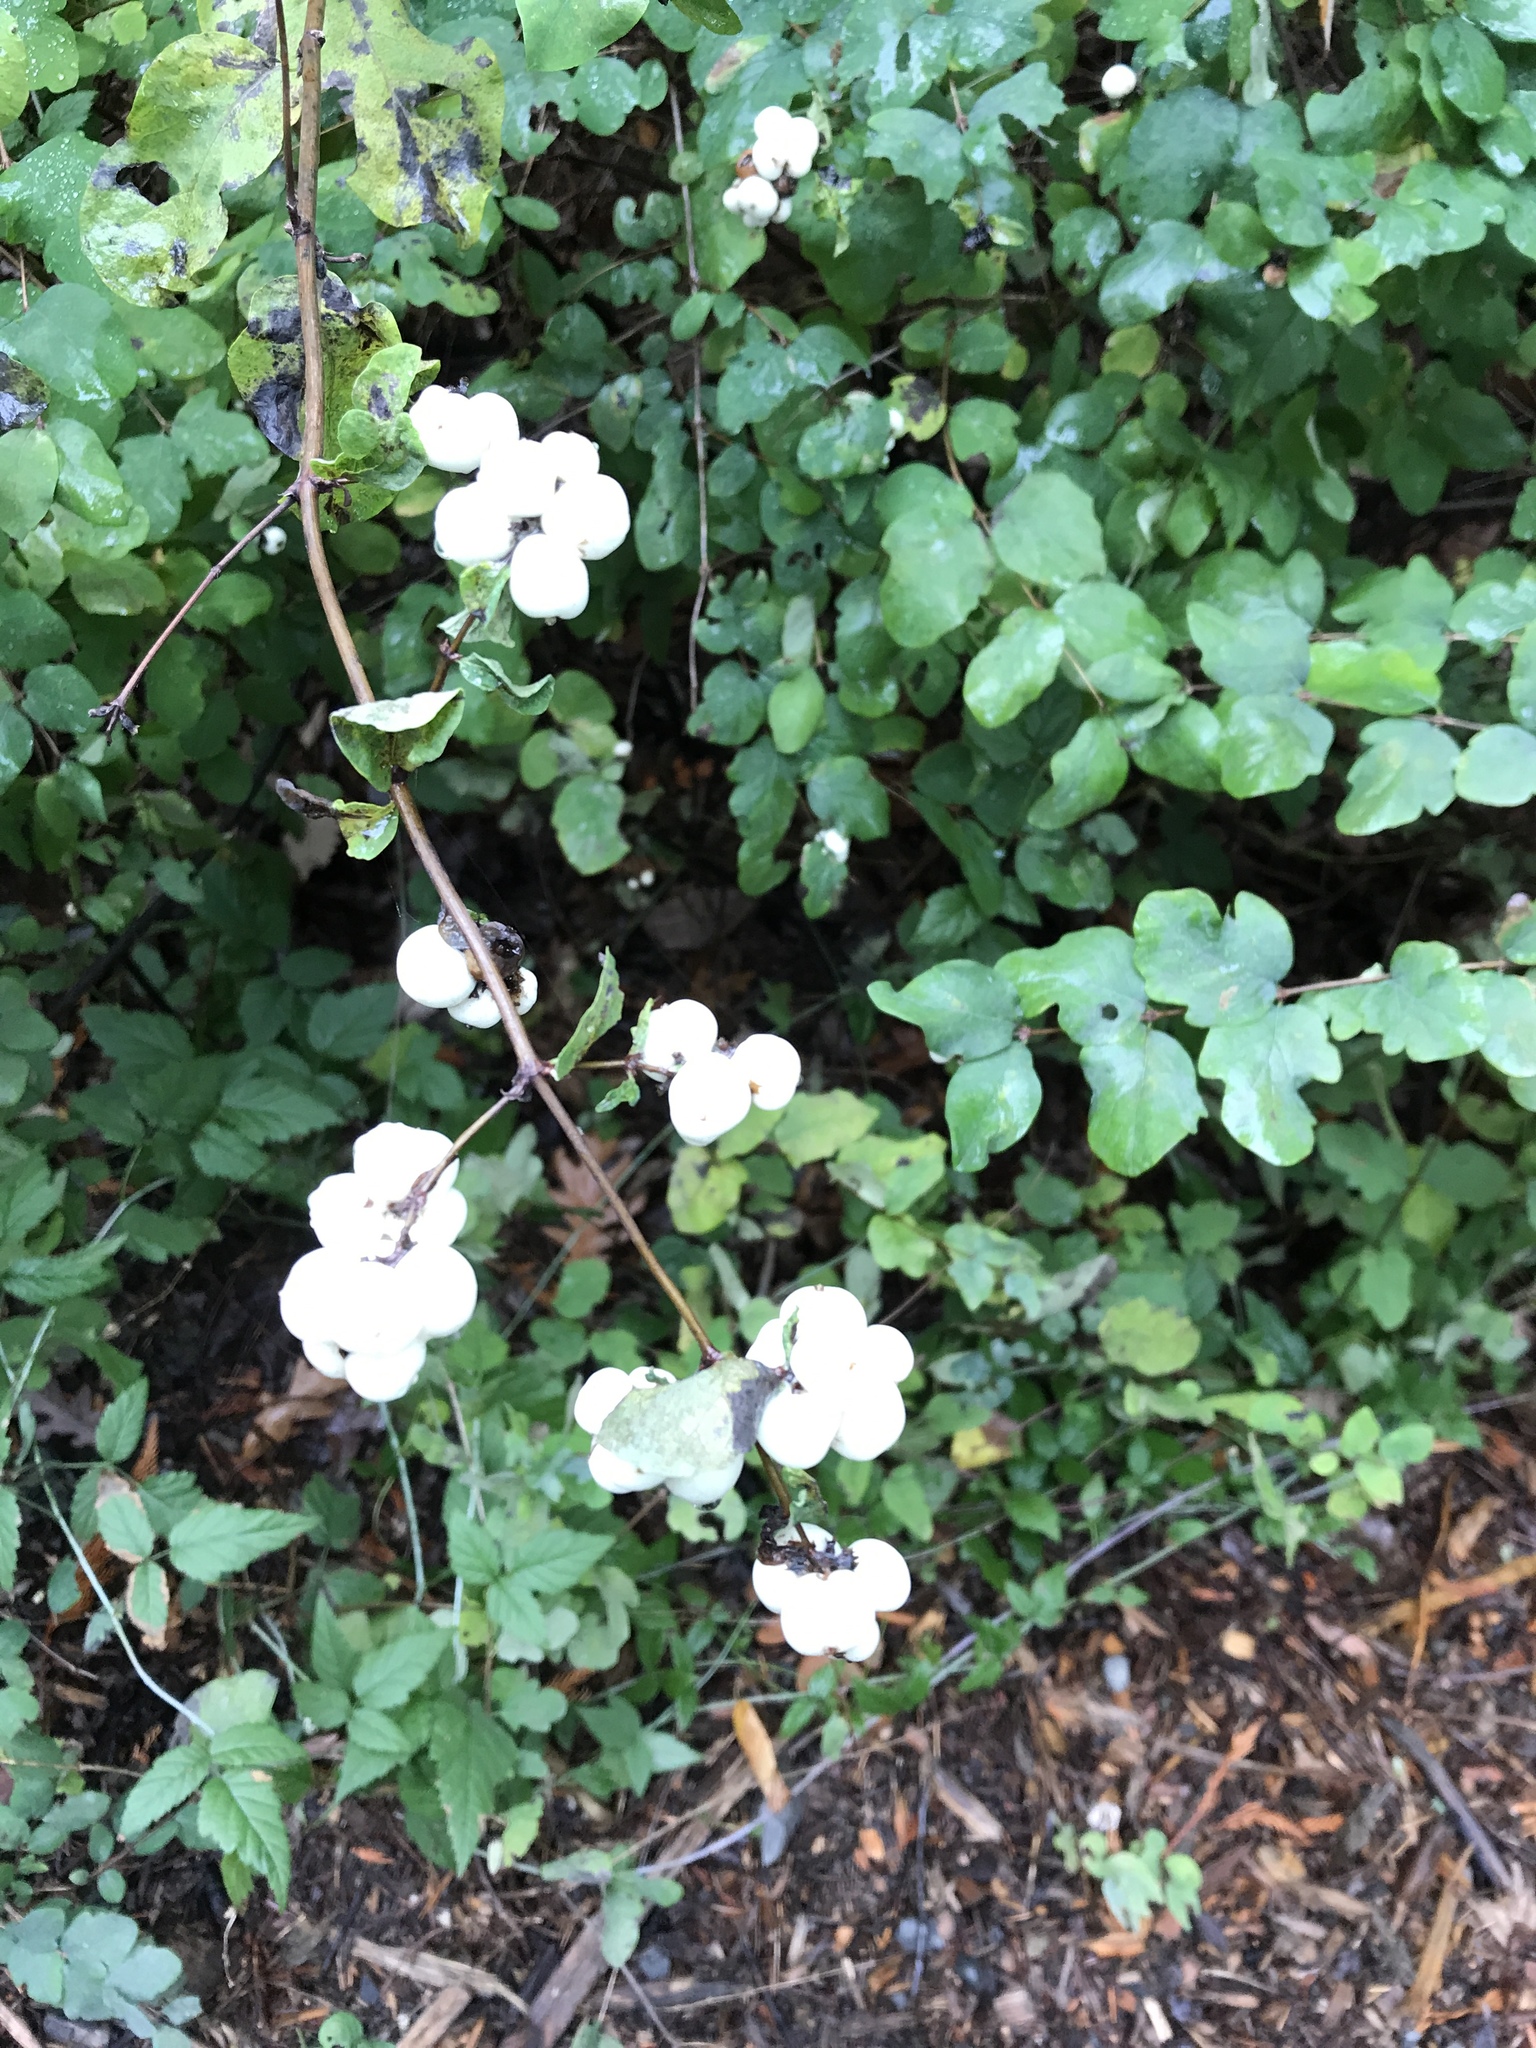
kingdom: Plantae
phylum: Tracheophyta
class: Magnoliopsida
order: Dipsacales
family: Caprifoliaceae
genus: Symphoricarpos
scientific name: Symphoricarpos albus
